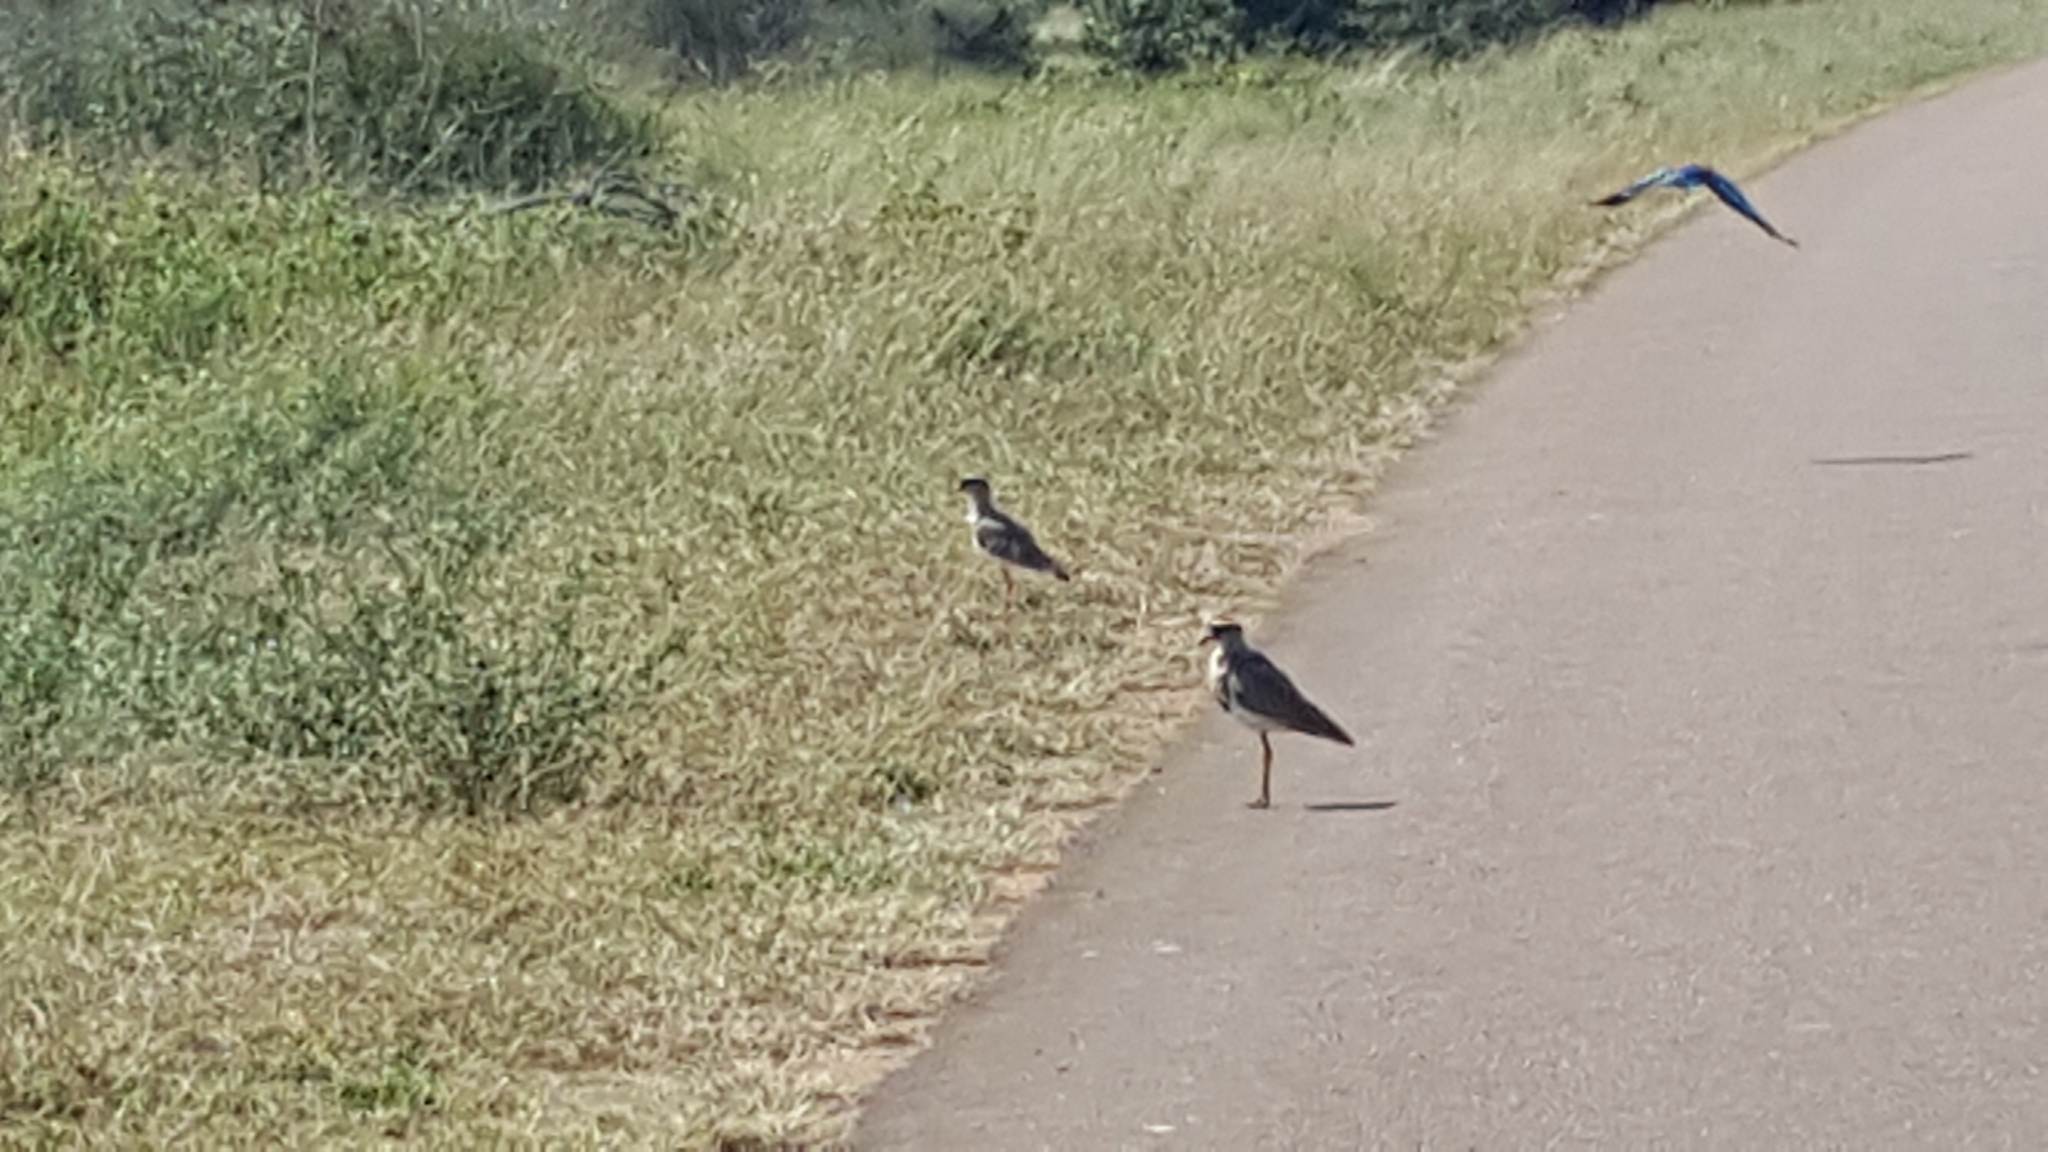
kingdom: Animalia
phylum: Chordata
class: Aves
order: Charadriiformes
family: Charadriidae
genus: Vanellus
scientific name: Vanellus coronatus
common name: Crowned lapwing
